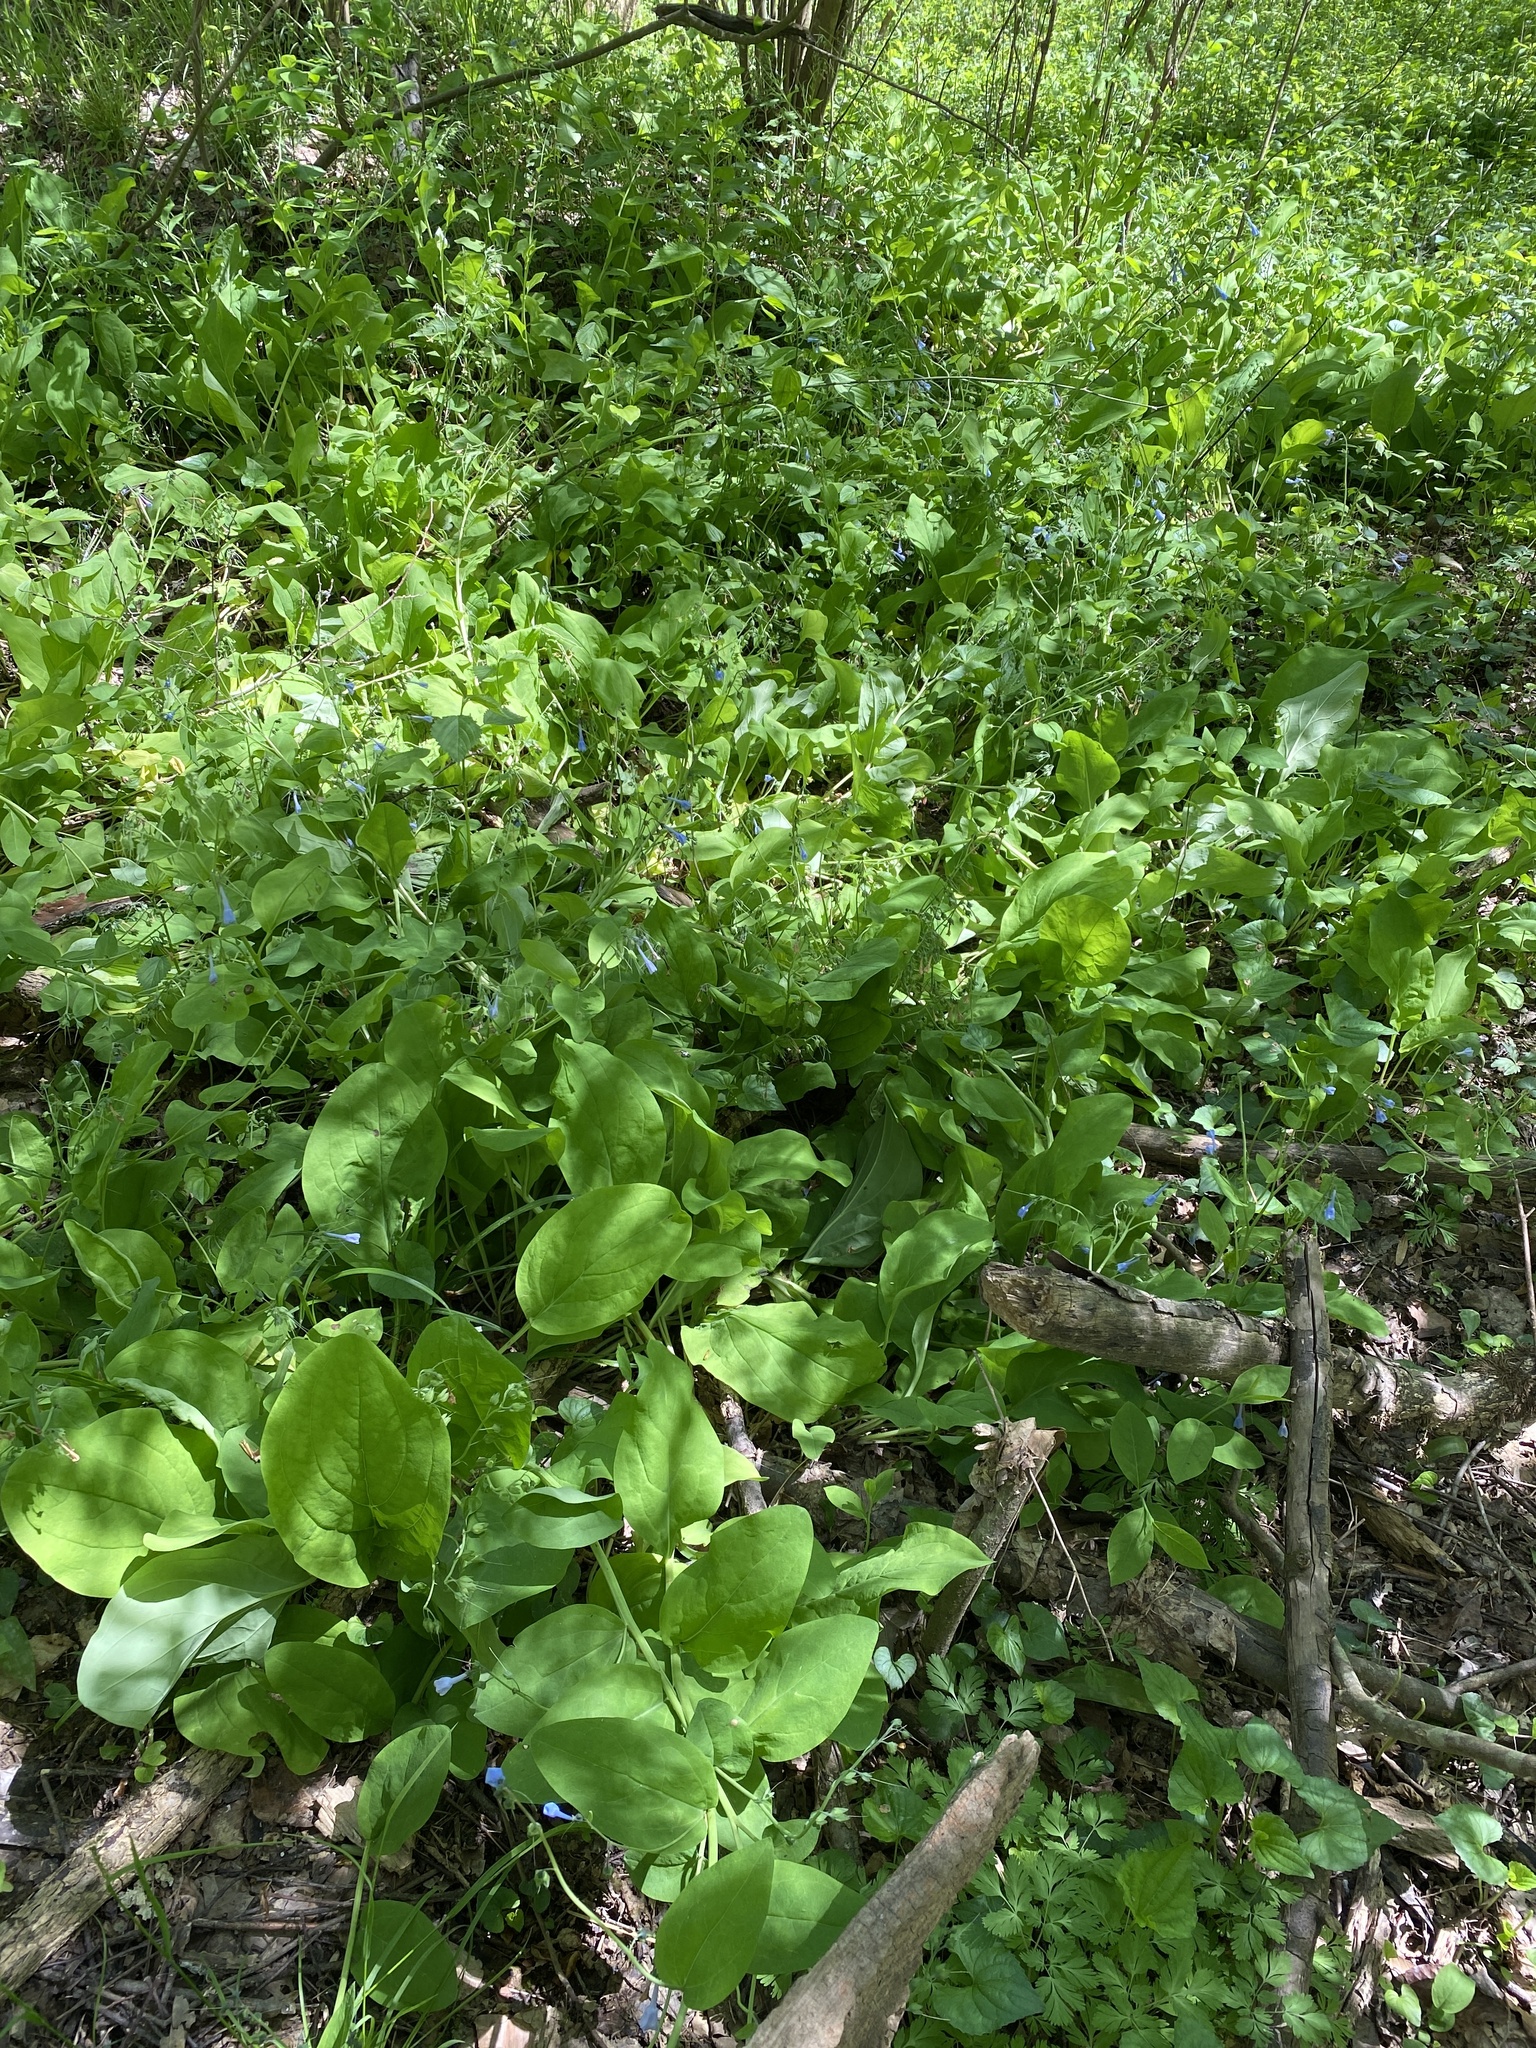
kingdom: Plantae
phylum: Tracheophyta
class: Magnoliopsida
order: Boraginales
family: Boraginaceae
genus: Mertensia
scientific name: Mertensia virginica
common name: Virginia bluebells
